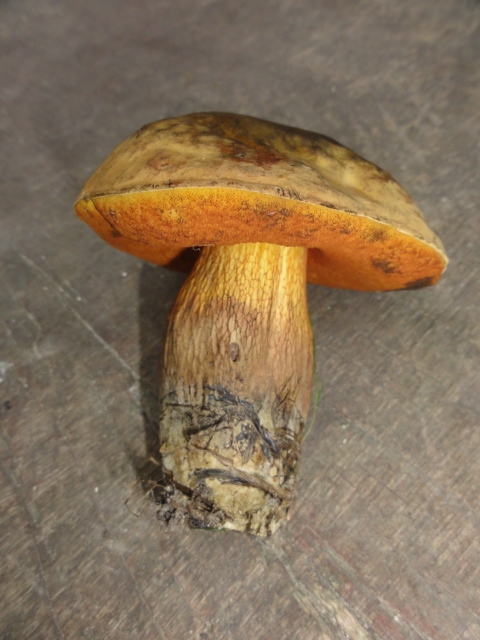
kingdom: Fungi
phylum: Basidiomycota
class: Agaricomycetes
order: Boletales
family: Boletaceae
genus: Suillellus
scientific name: Suillellus luridus
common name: Lurid bolete
